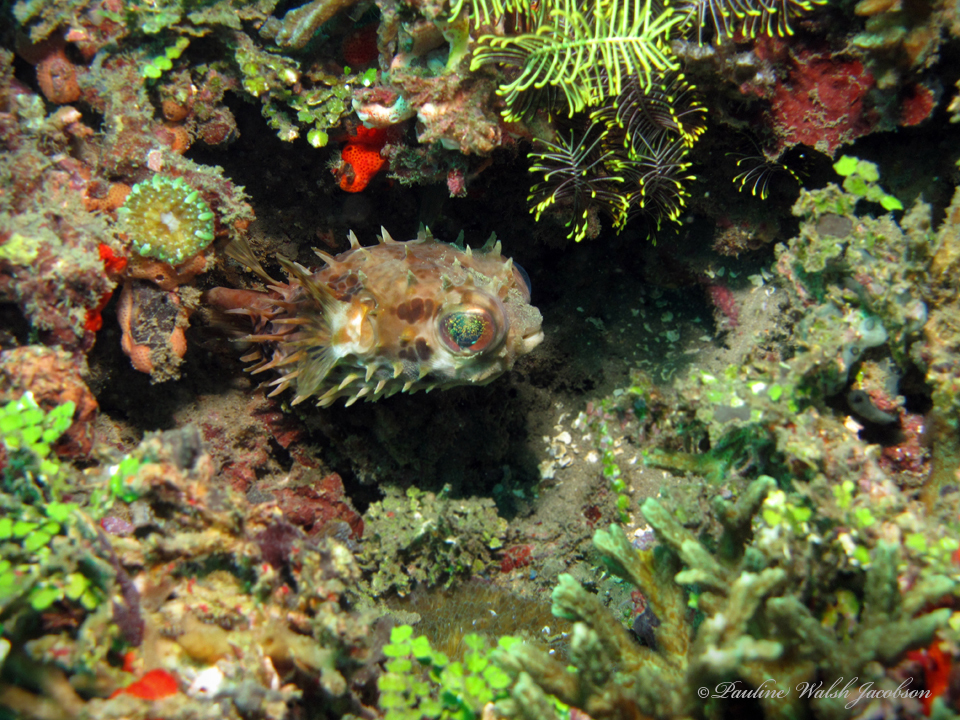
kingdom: Animalia
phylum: Chordata
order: Tetraodontiformes
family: Diodontidae
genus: Cyclichthys
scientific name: Cyclichthys orbicularis
